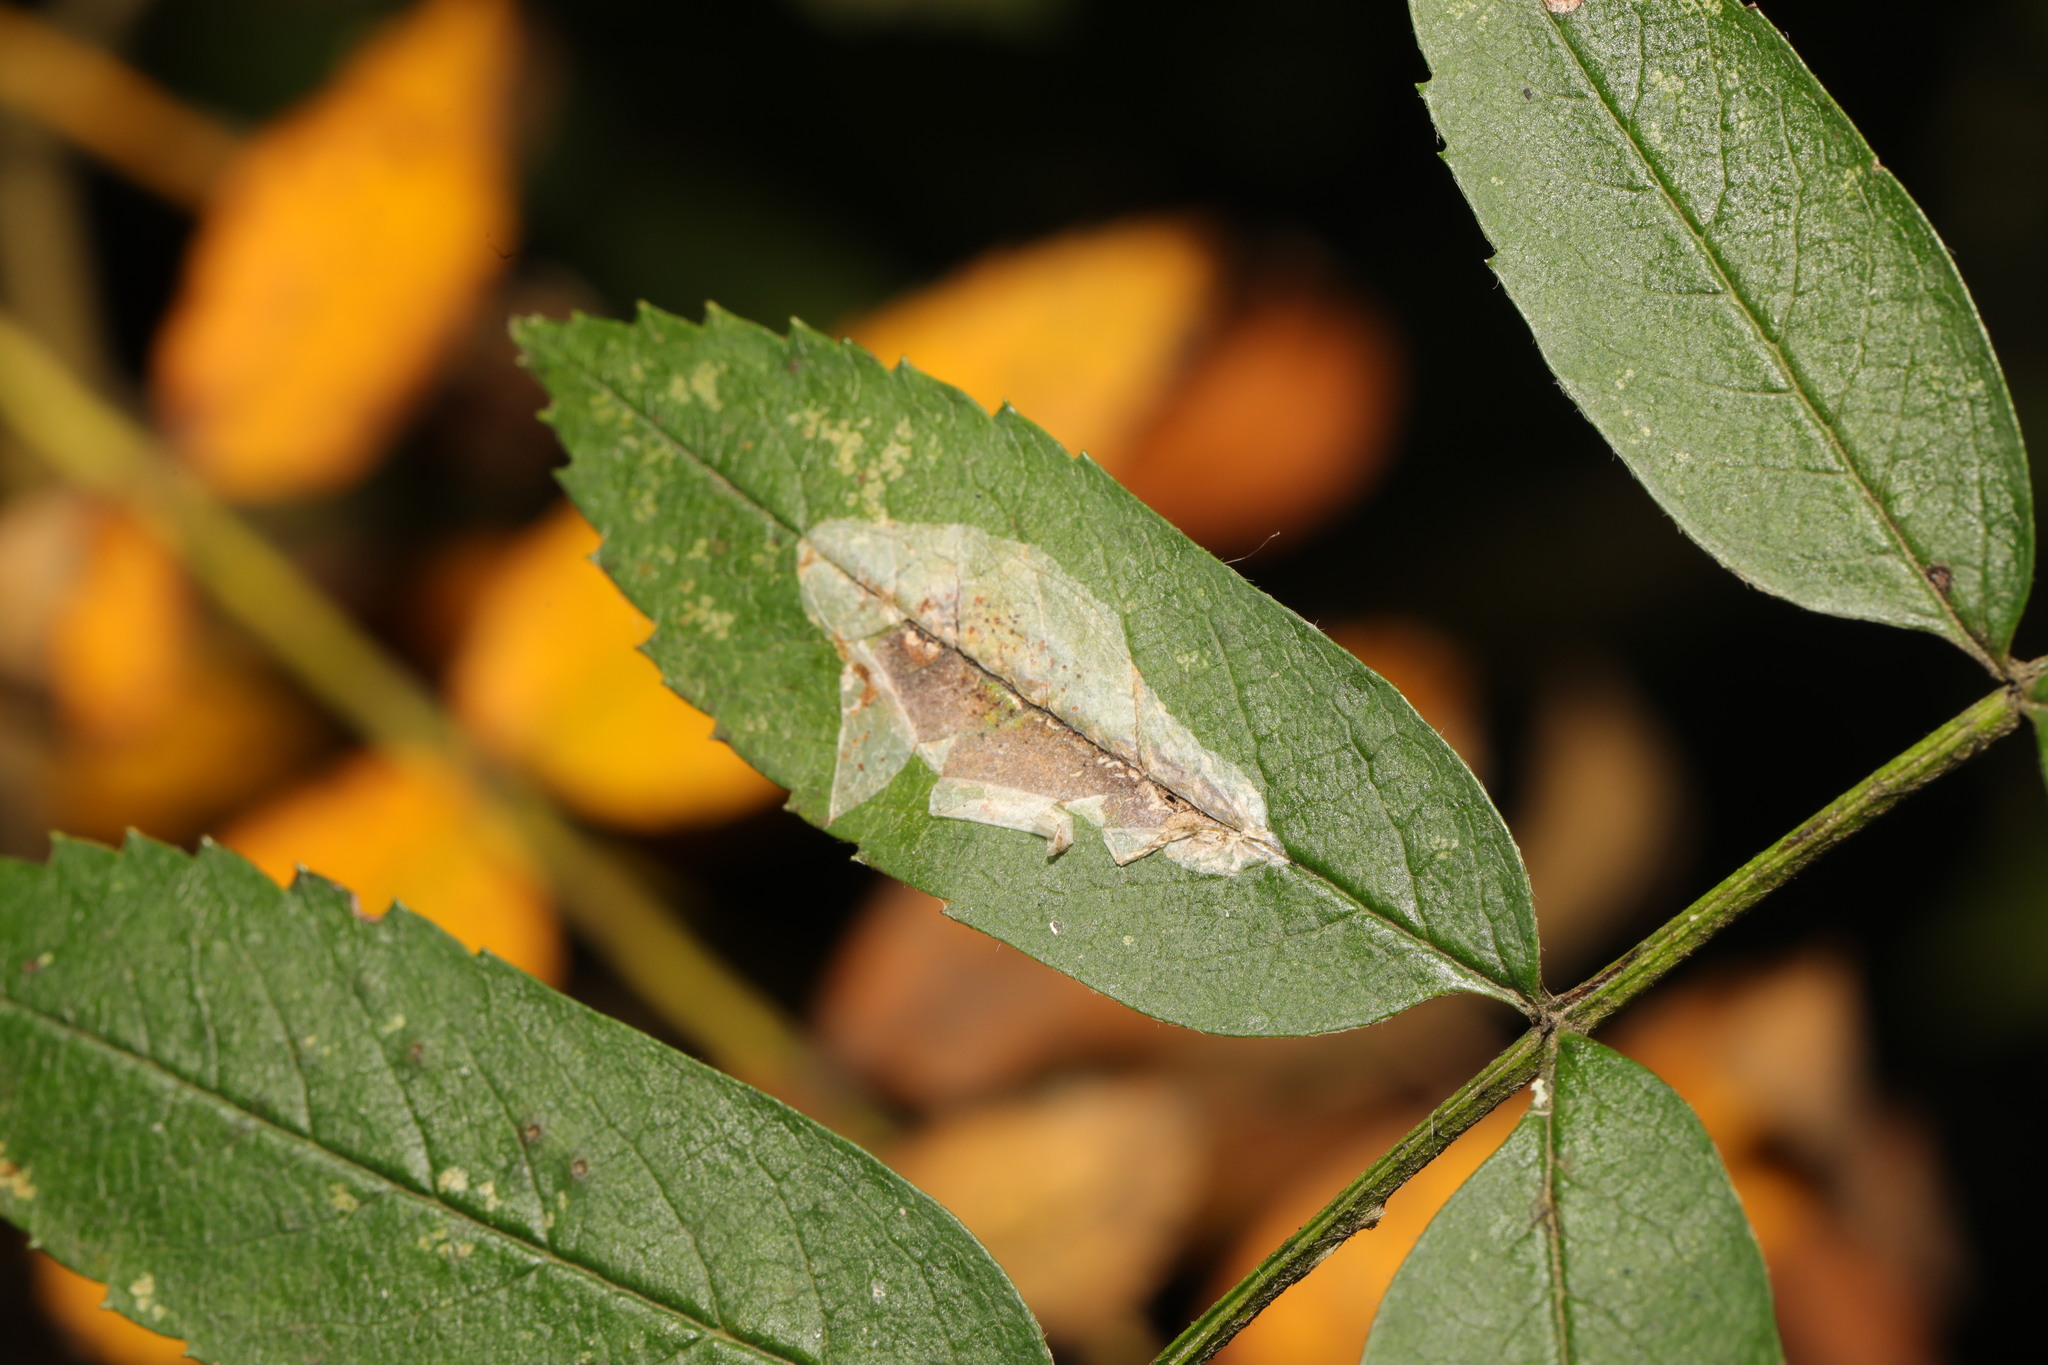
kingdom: Animalia
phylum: Arthropoda
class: Insecta
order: Lepidoptera
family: Gracillariidae
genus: Phyllonorycter
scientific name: Phyllonorycter leucographella
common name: Firethorn leaf-miner
